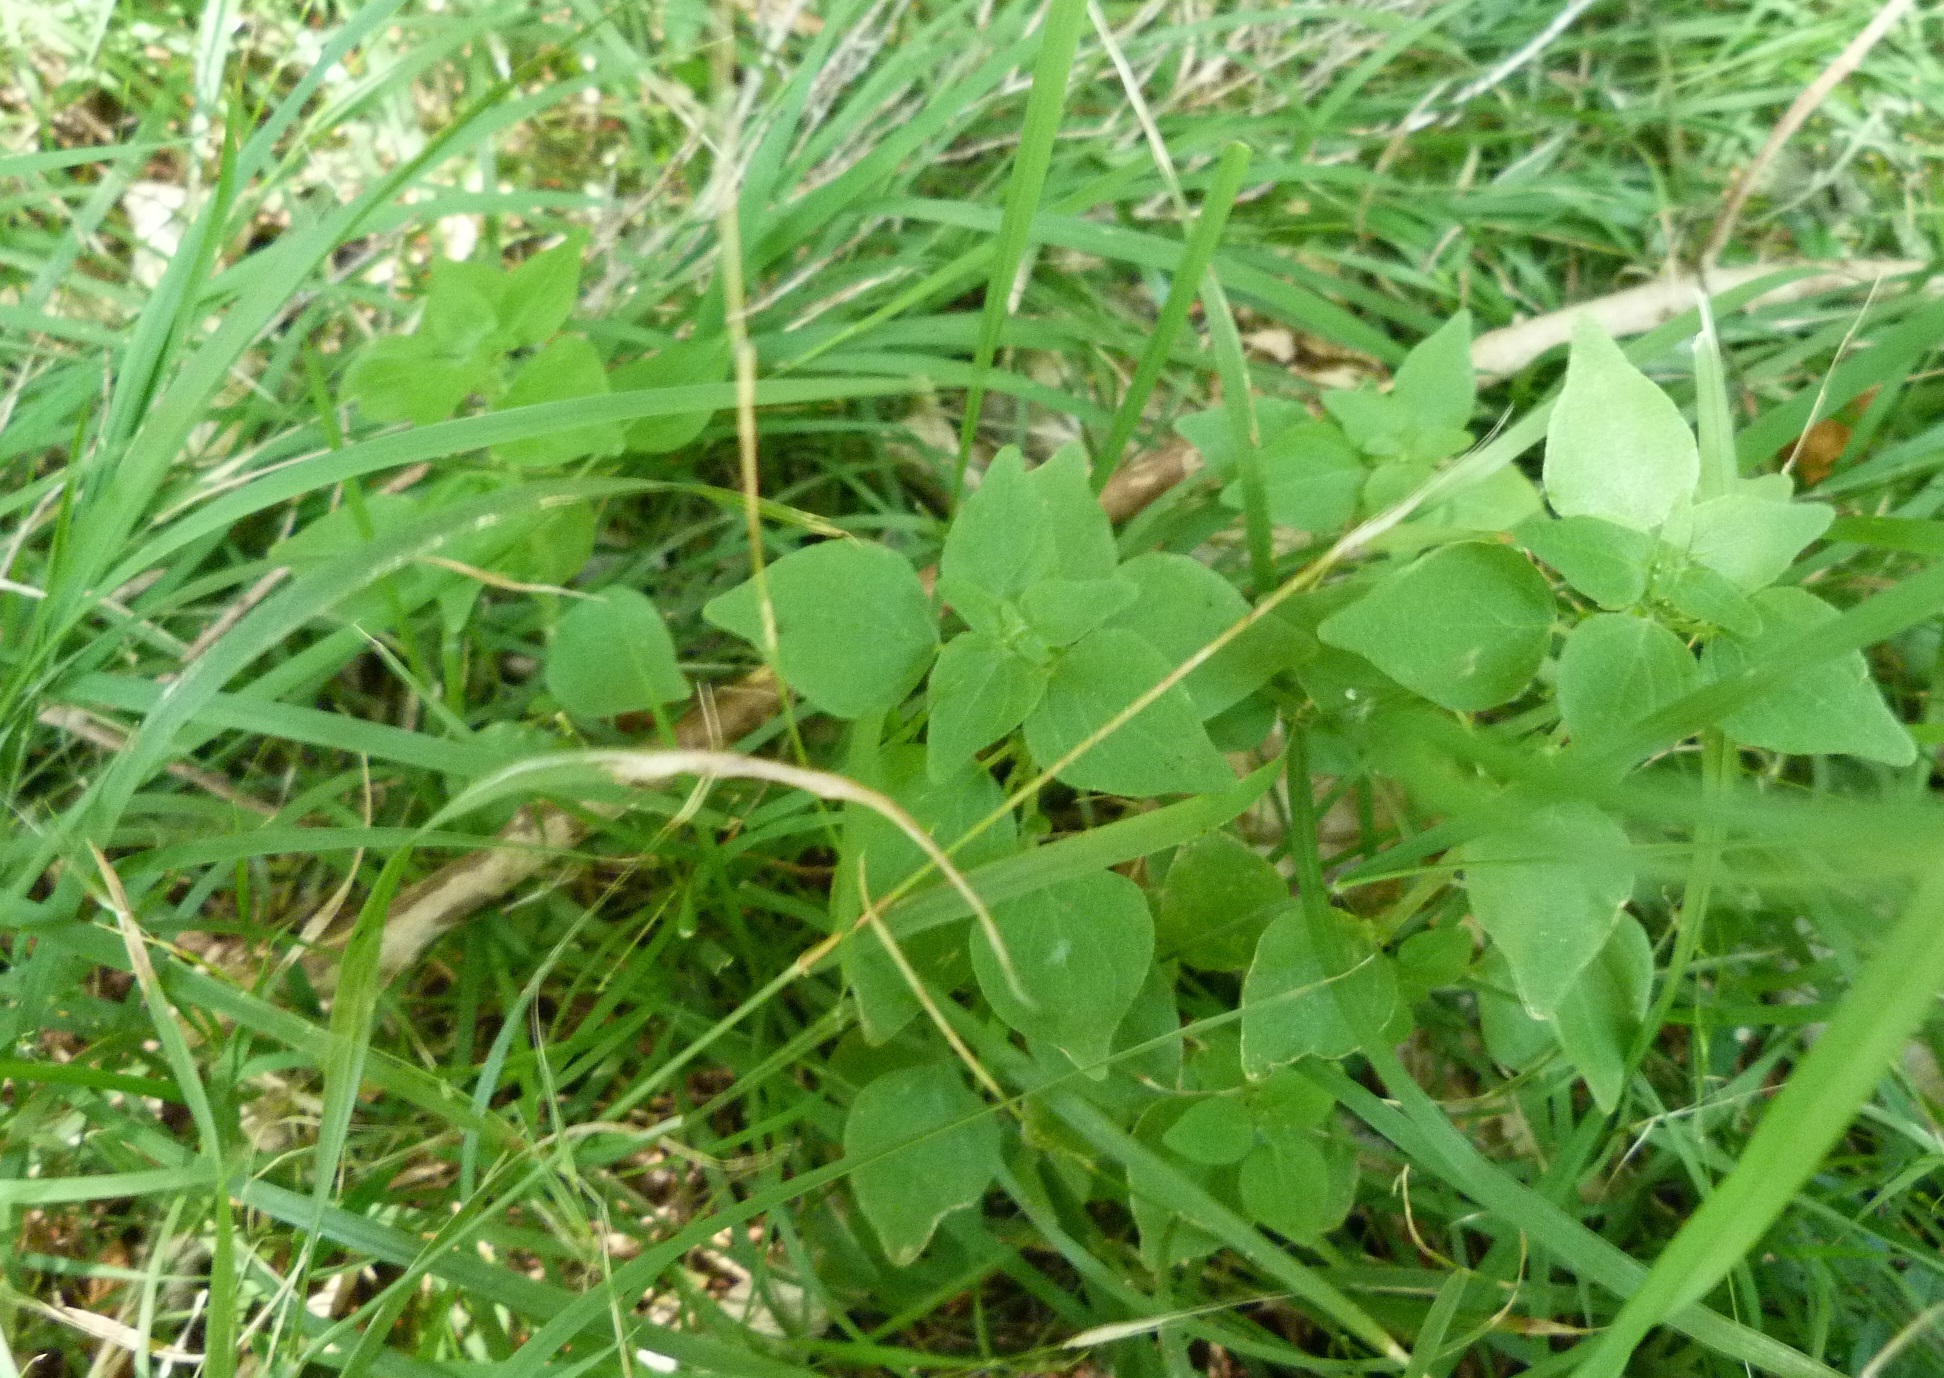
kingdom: Plantae
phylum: Tracheophyta
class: Magnoliopsida
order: Rosales
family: Urticaceae
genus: Parietaria
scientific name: Parietaria debilis
